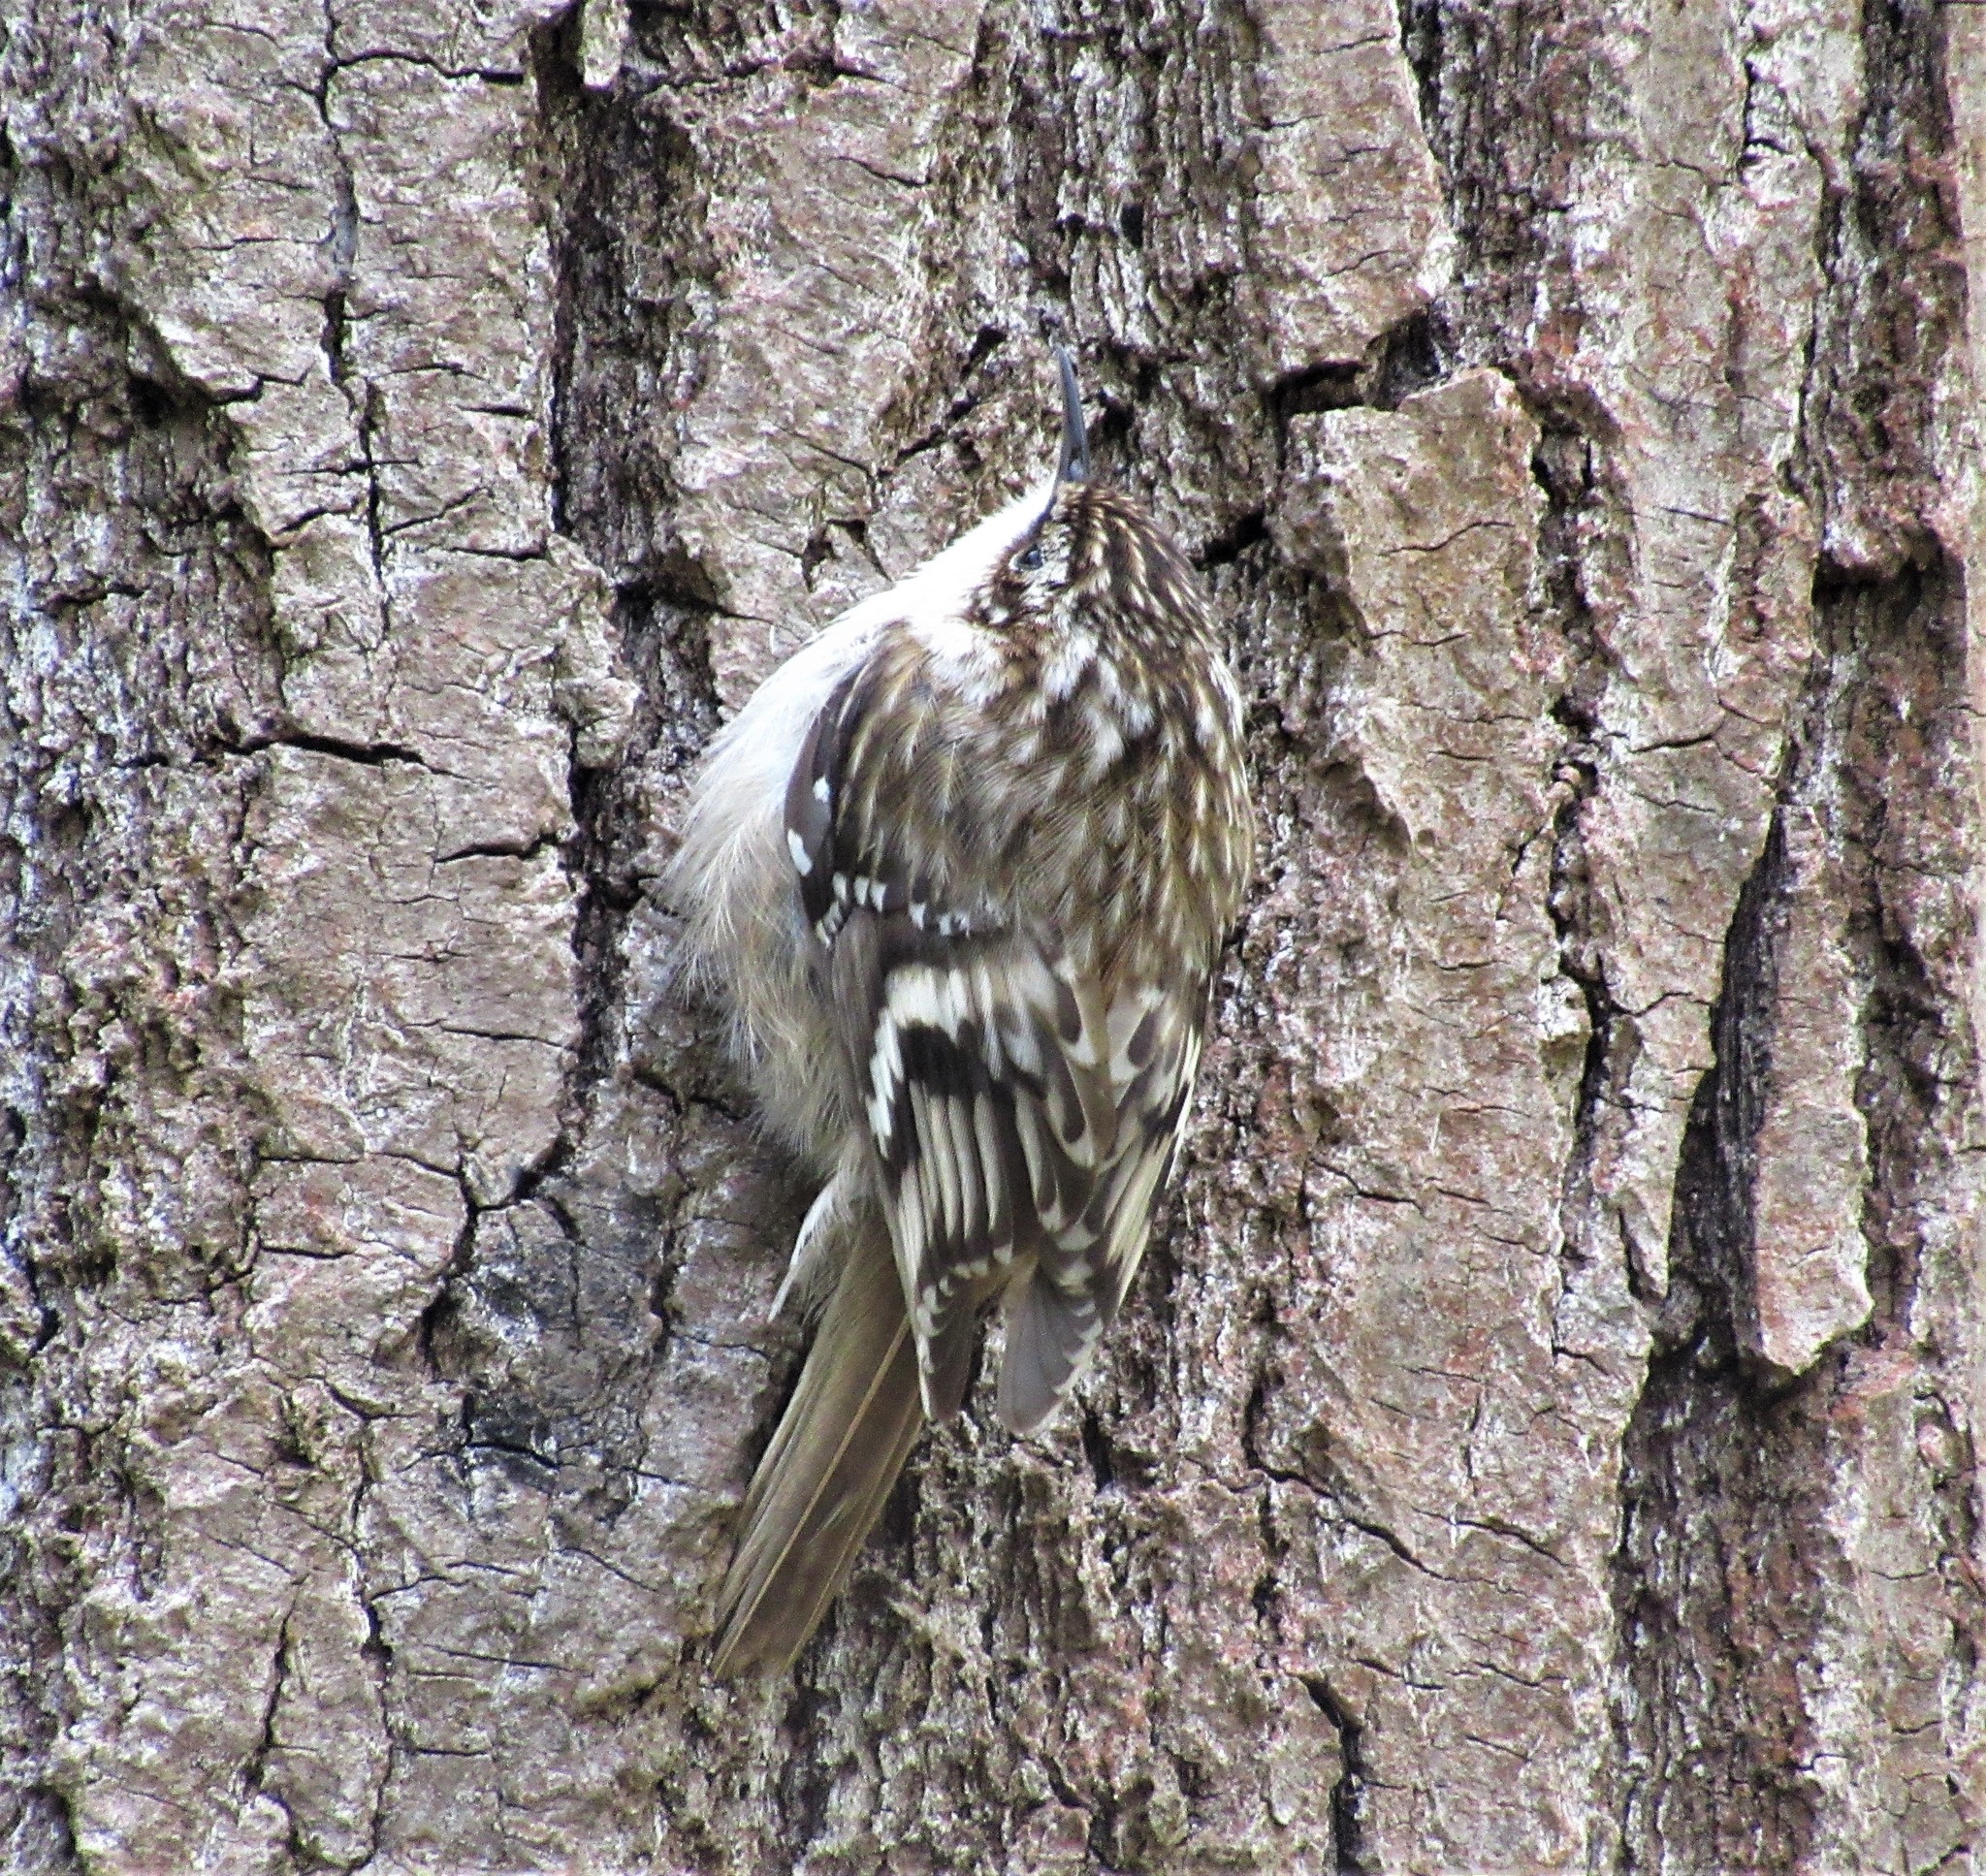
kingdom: Animalia
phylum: Chordata
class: Aves
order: Passeriformes
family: Certhiidae
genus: Certhia
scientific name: Certhia americana
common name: Brown creeper
